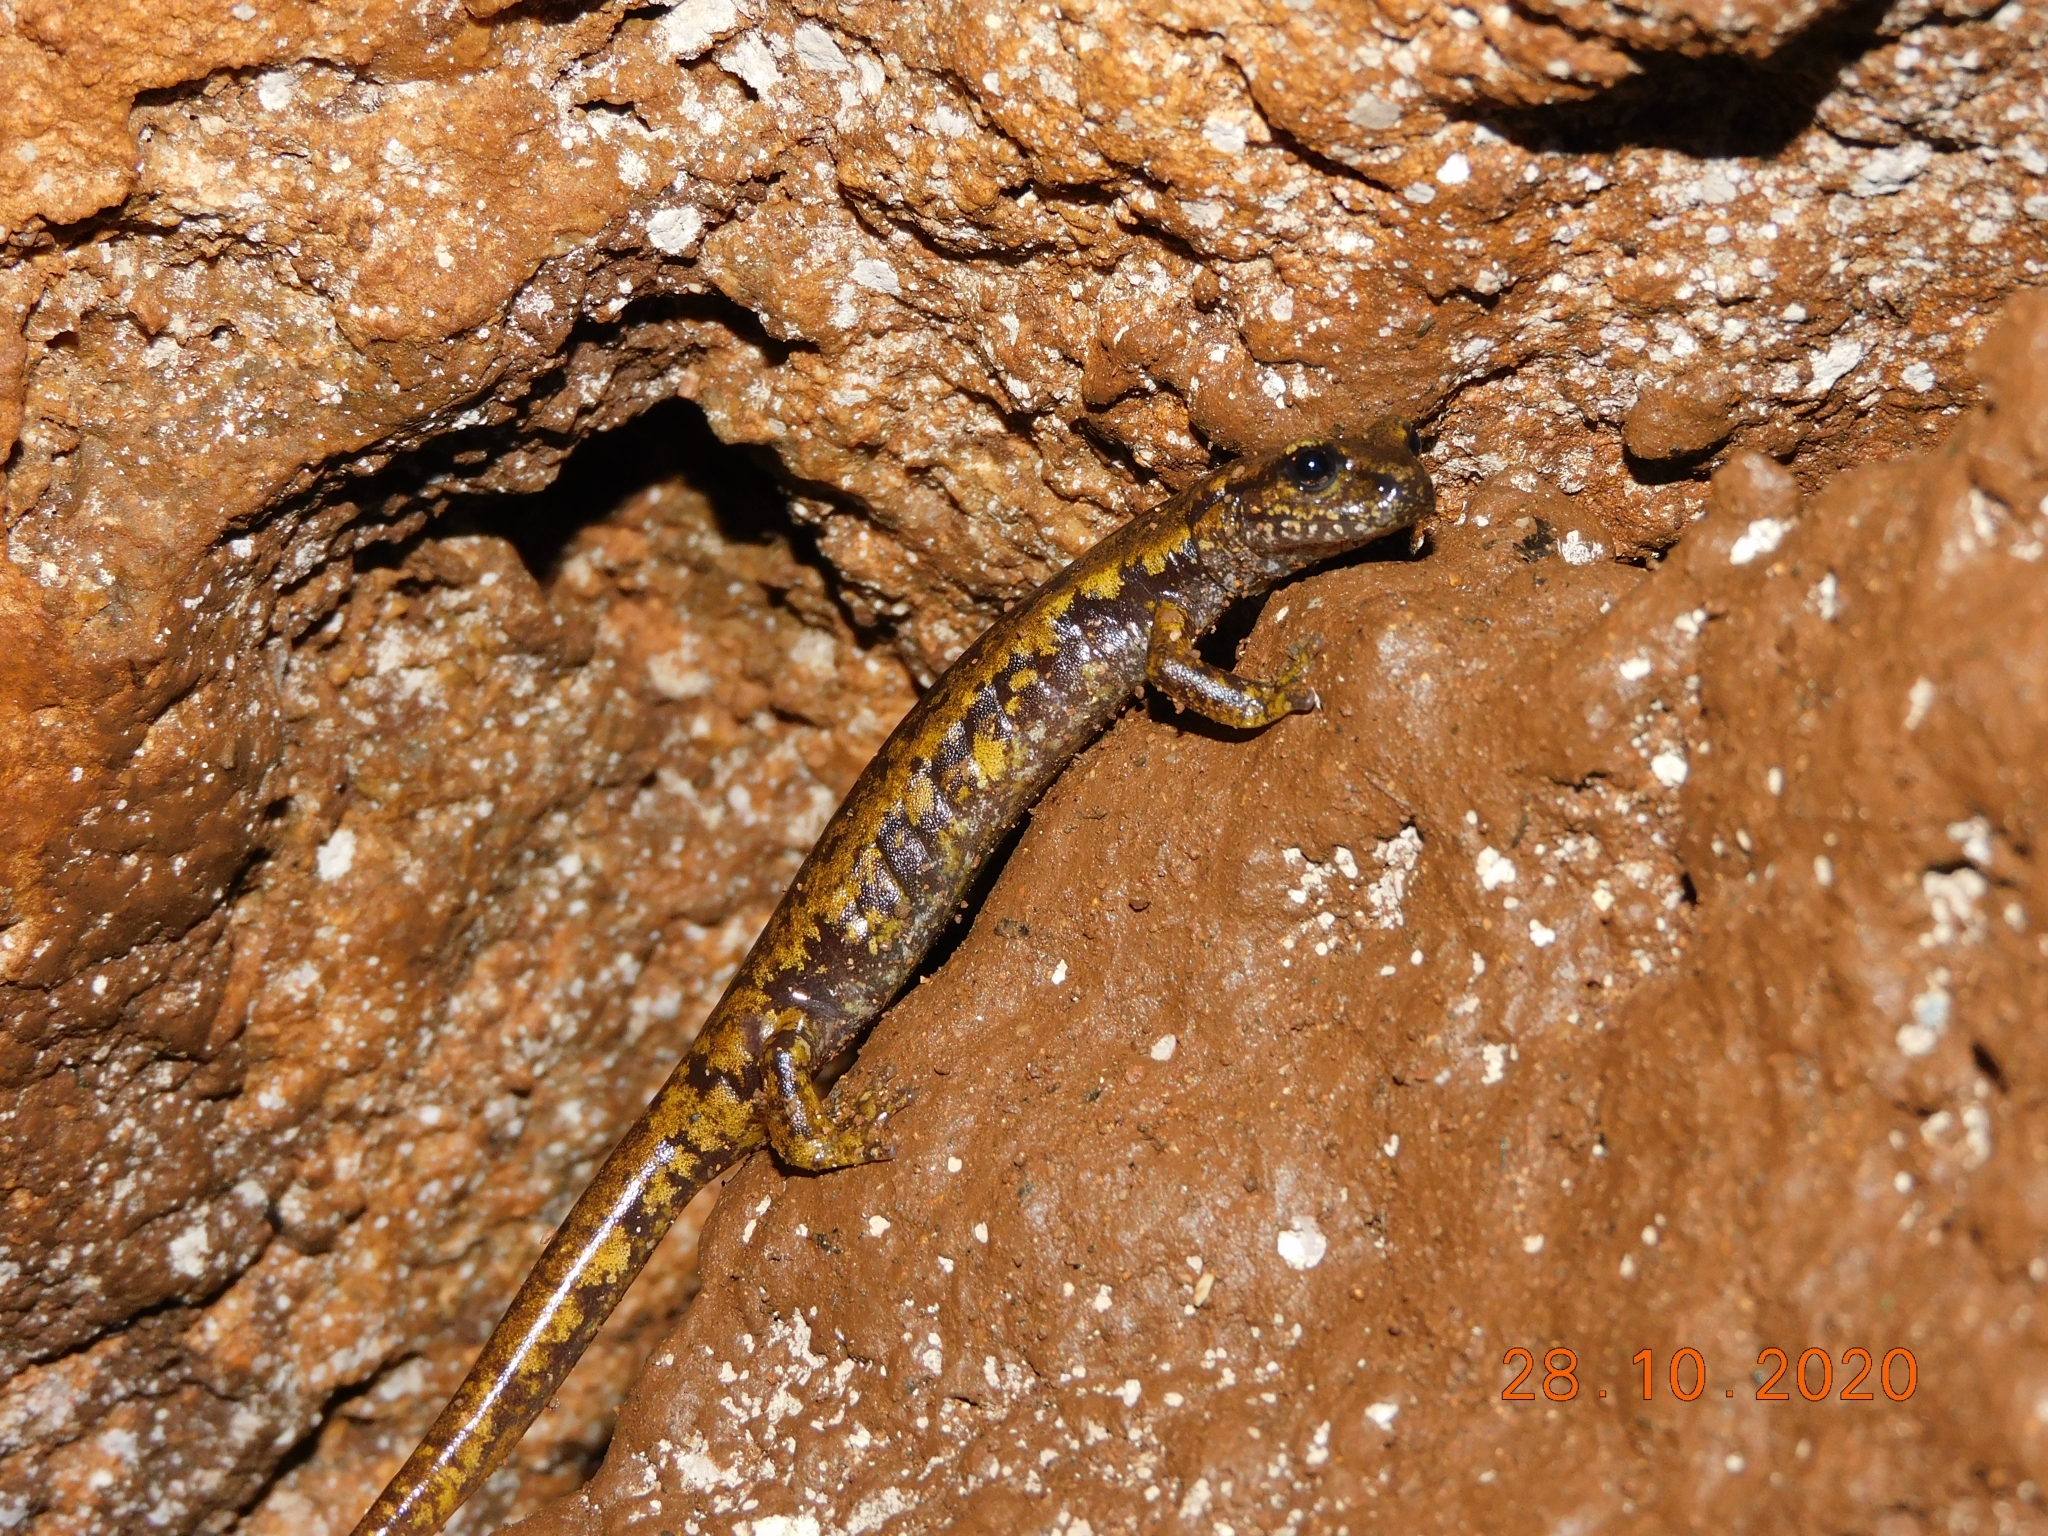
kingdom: Animalia
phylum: Chordata
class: Amphibia
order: Caudata
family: Plethodontidae
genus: Speleomantes
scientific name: Speleomantes italicus
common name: Italian cave salamander
